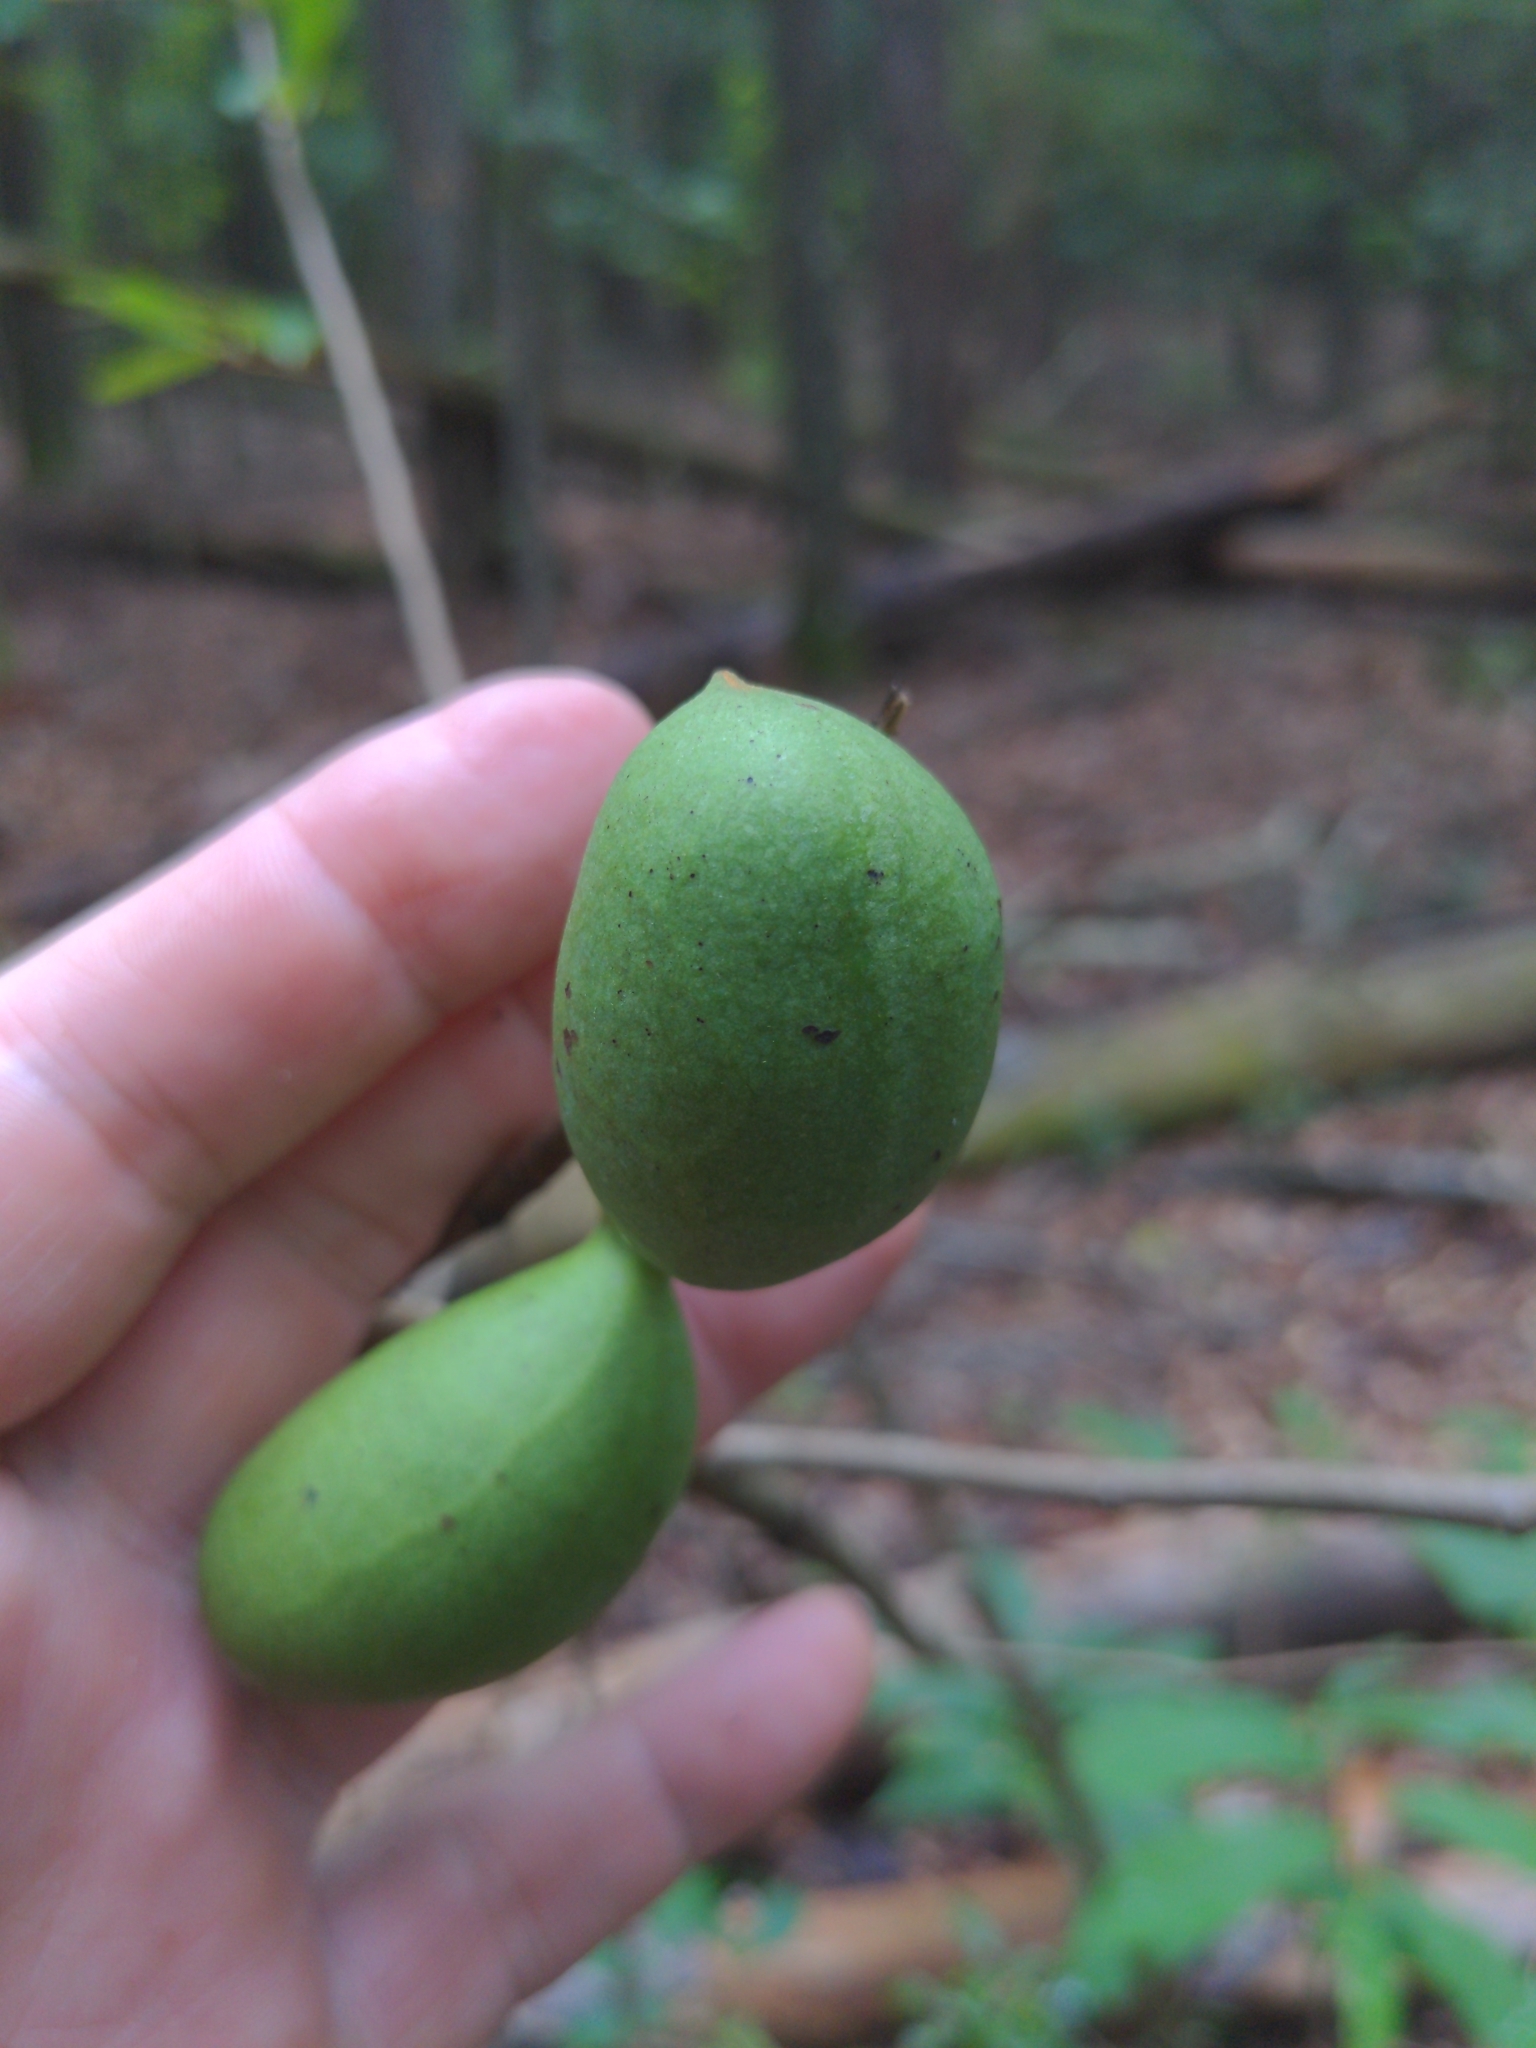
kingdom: Plantae
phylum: Tracheophyta
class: Magnoliopsida
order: Magnoliales
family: Annonaceae
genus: Asimina
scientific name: Asimina parviflora
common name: Dwarf pawpaw
